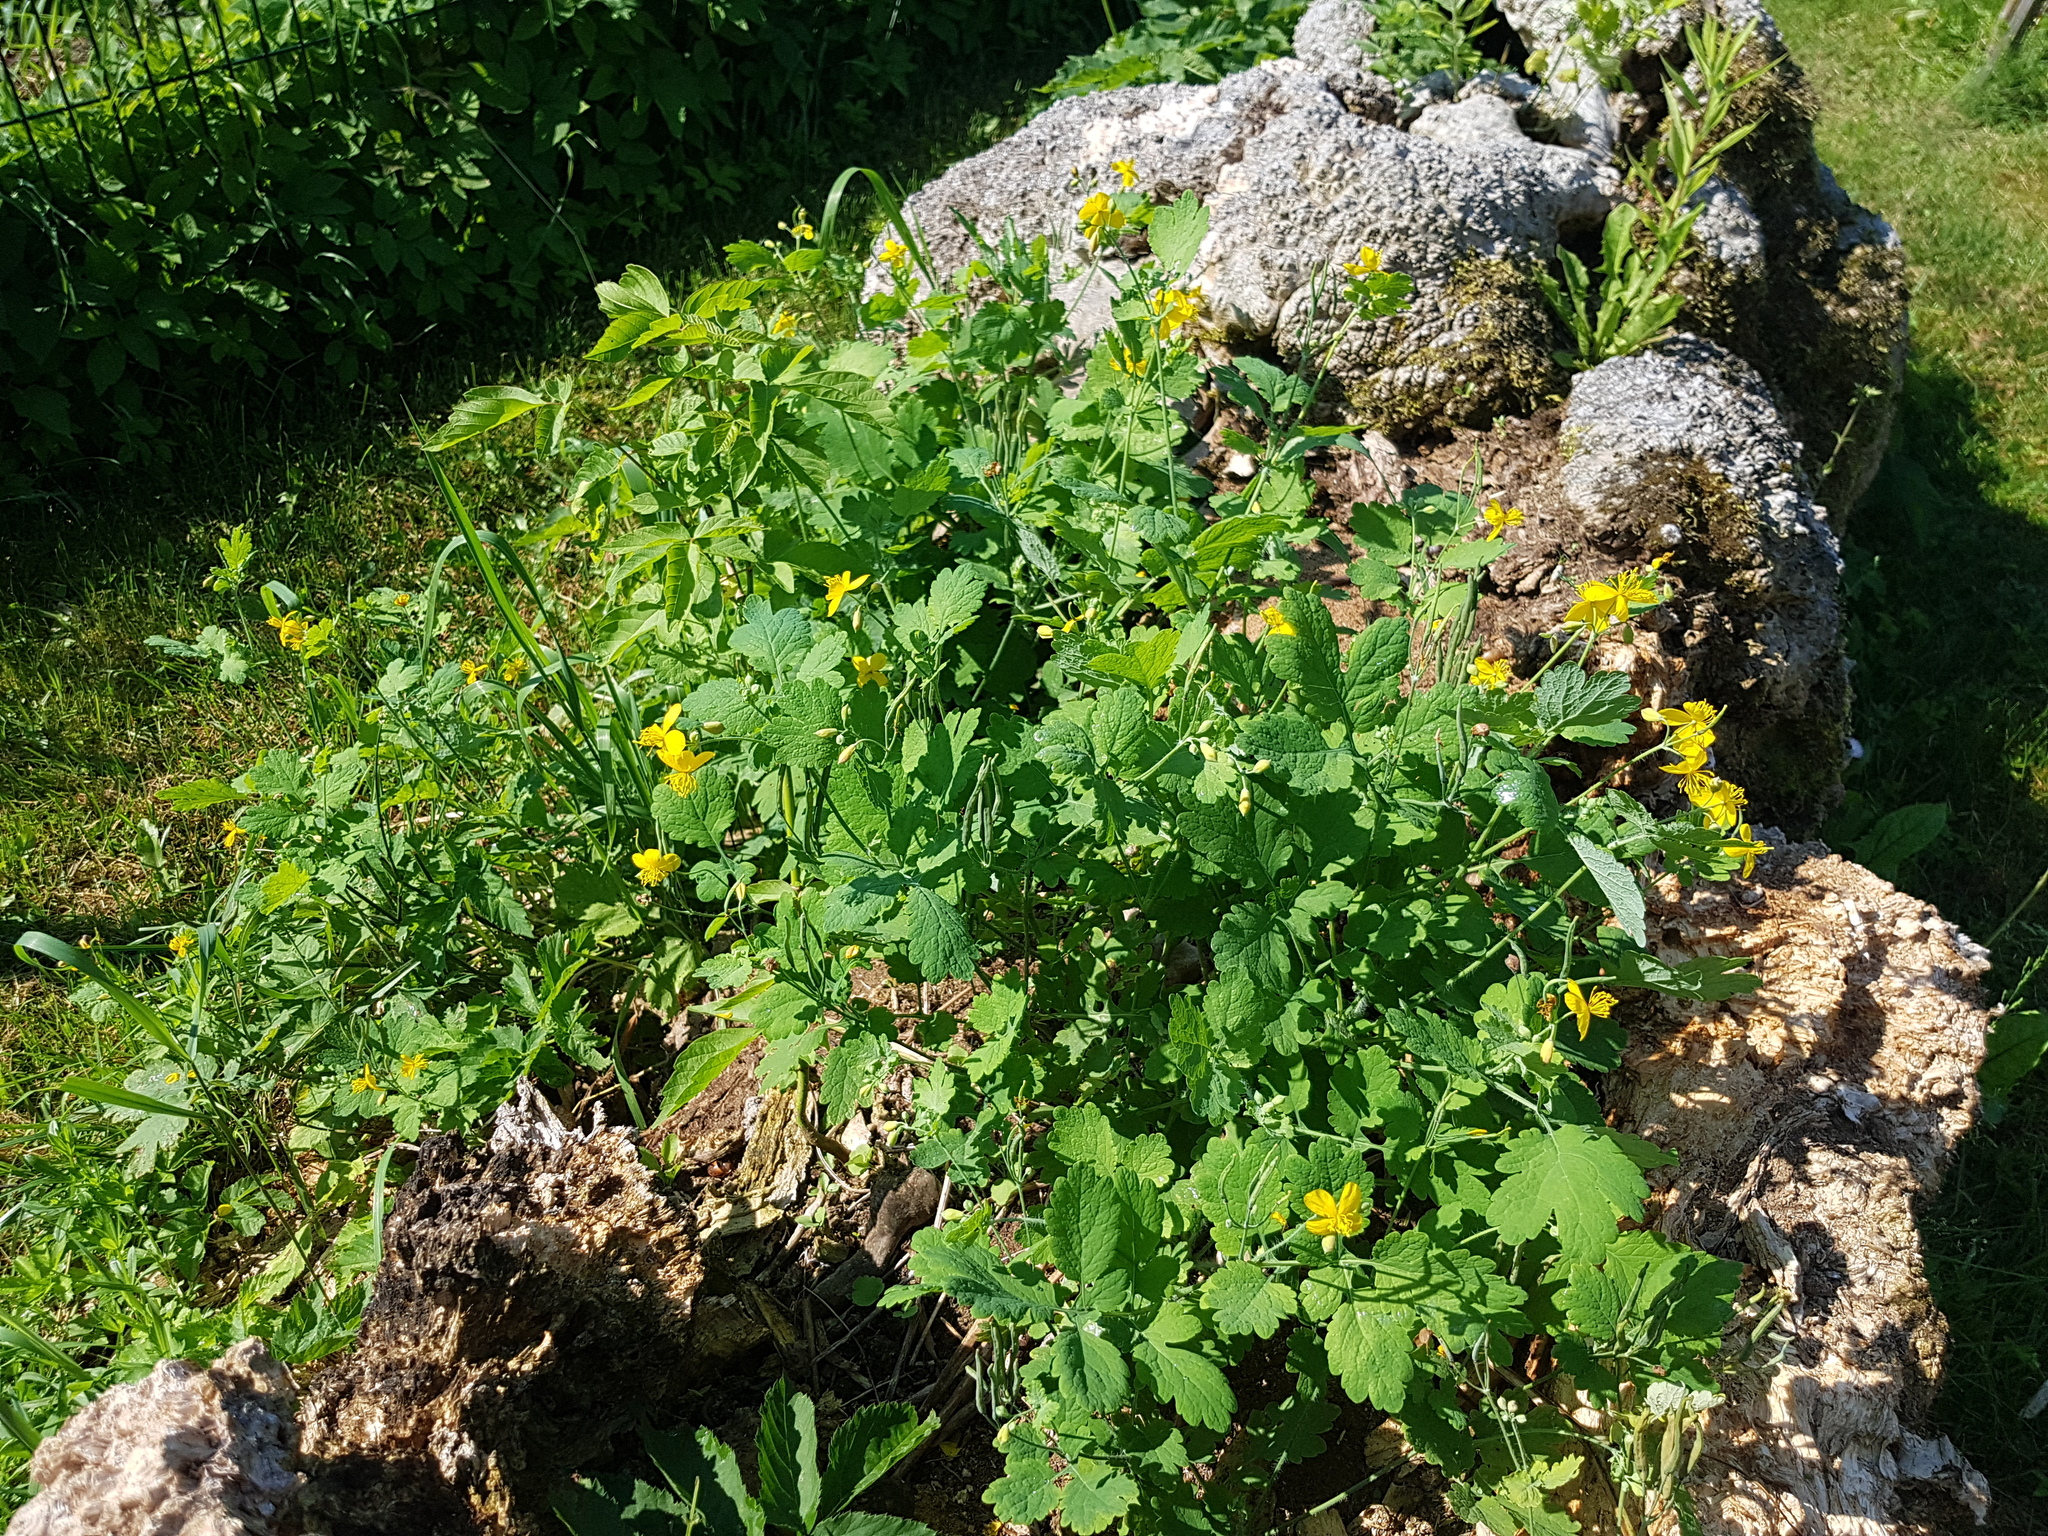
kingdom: Plantae
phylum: Tracheophyta
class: Magnoliopsida
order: Ranunculales
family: Papaveraceae
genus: Chelidonium
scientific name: Chelidonium majus
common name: Greater celandine
